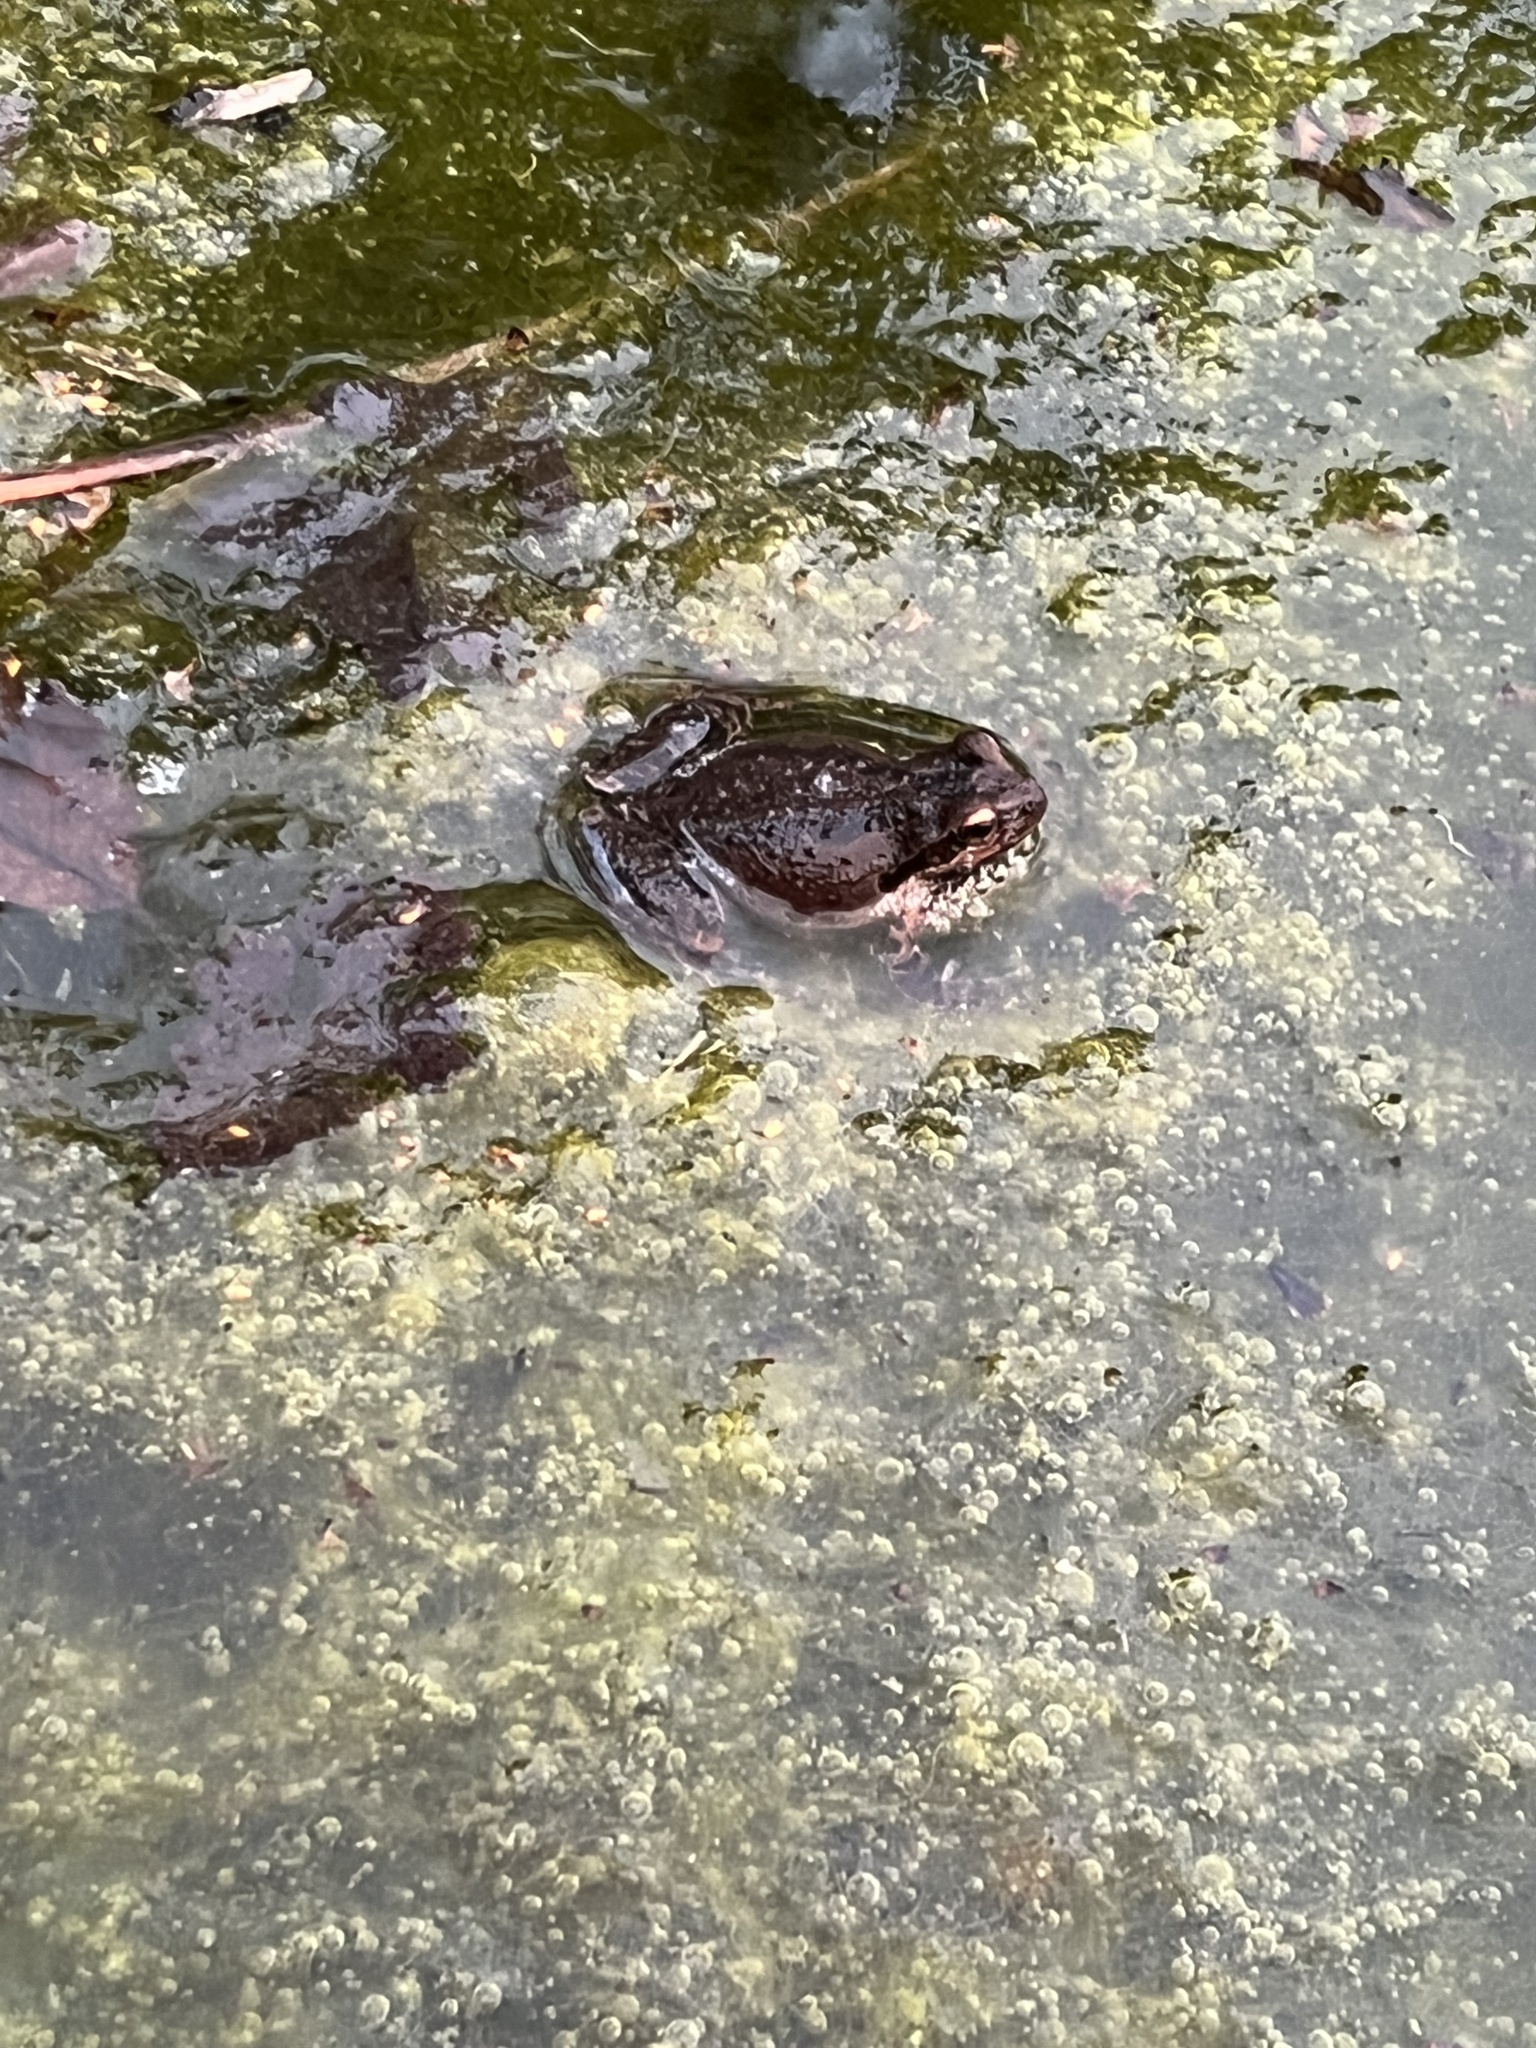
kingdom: Animalia
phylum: Chordata
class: Amphibia
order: Anura
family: Hylidae
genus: Pseudacris
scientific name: Pseudacris regilla
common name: Pacific chorus frog
